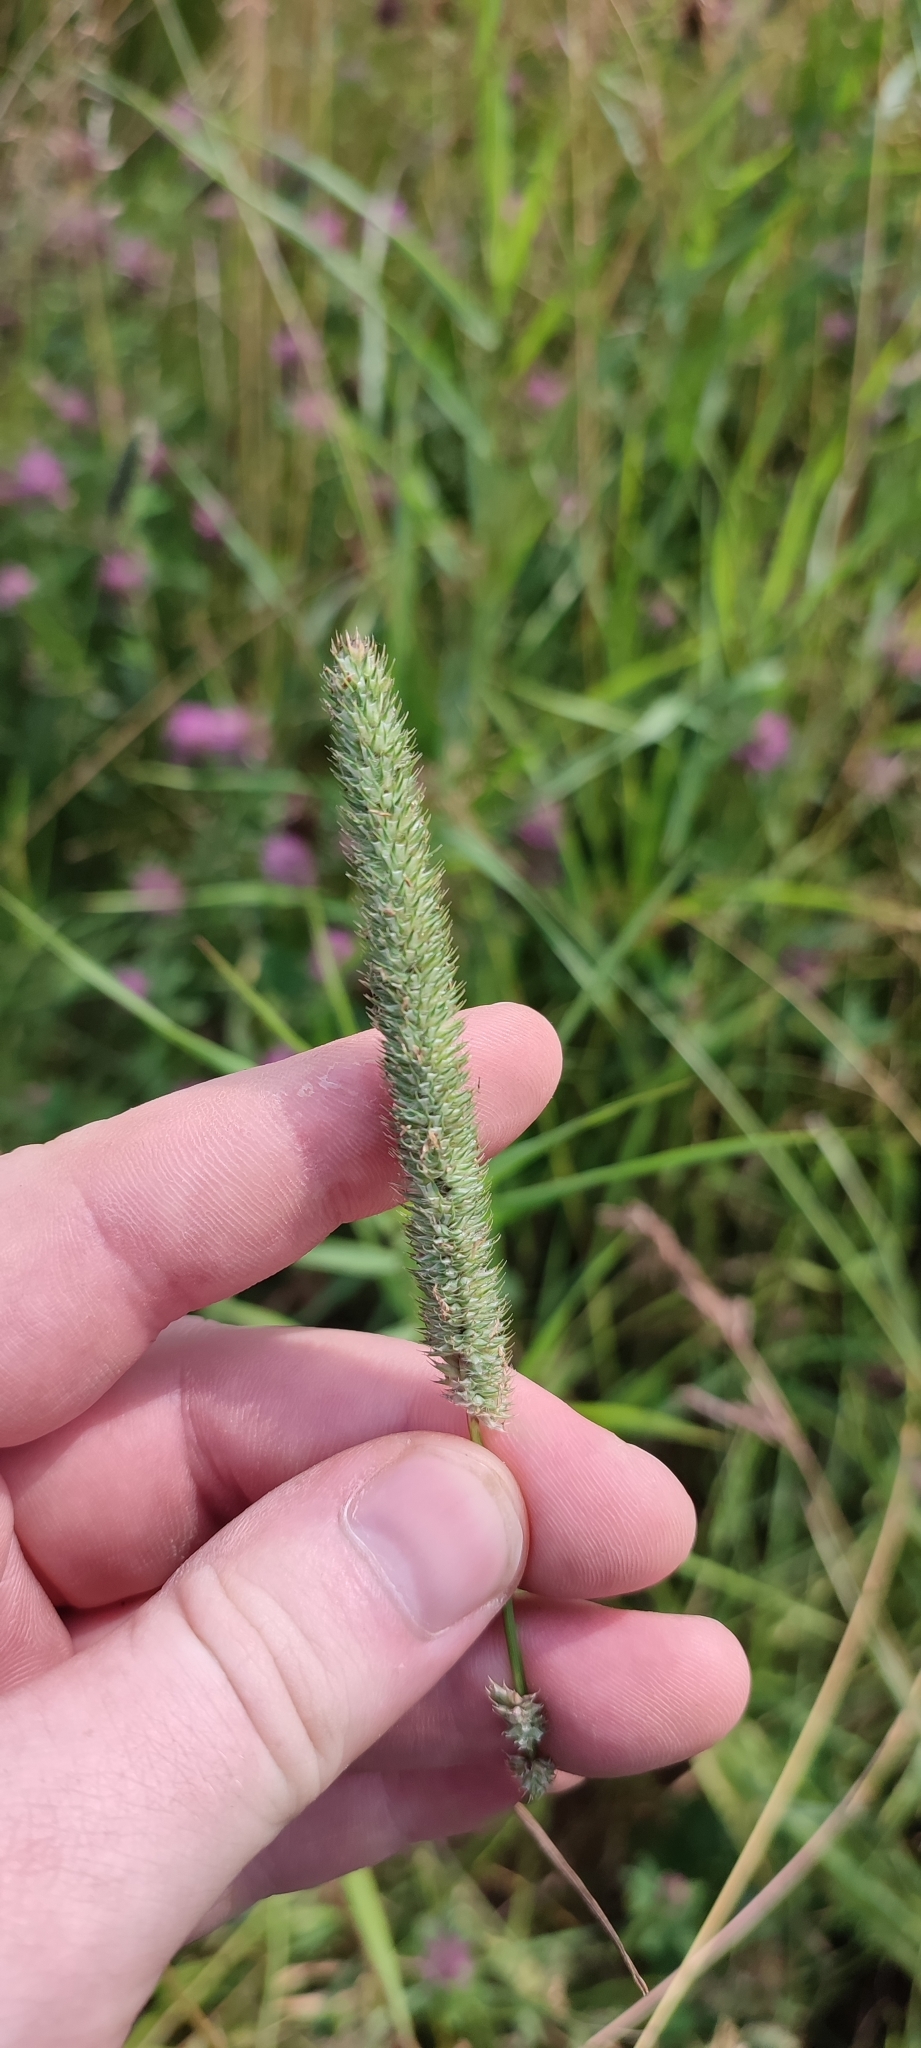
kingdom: Plantae
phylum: Tracheophyta
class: Liliopsida
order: Poales
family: Poaceae
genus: Phleum
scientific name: Phleum pratense
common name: Timothy grass
